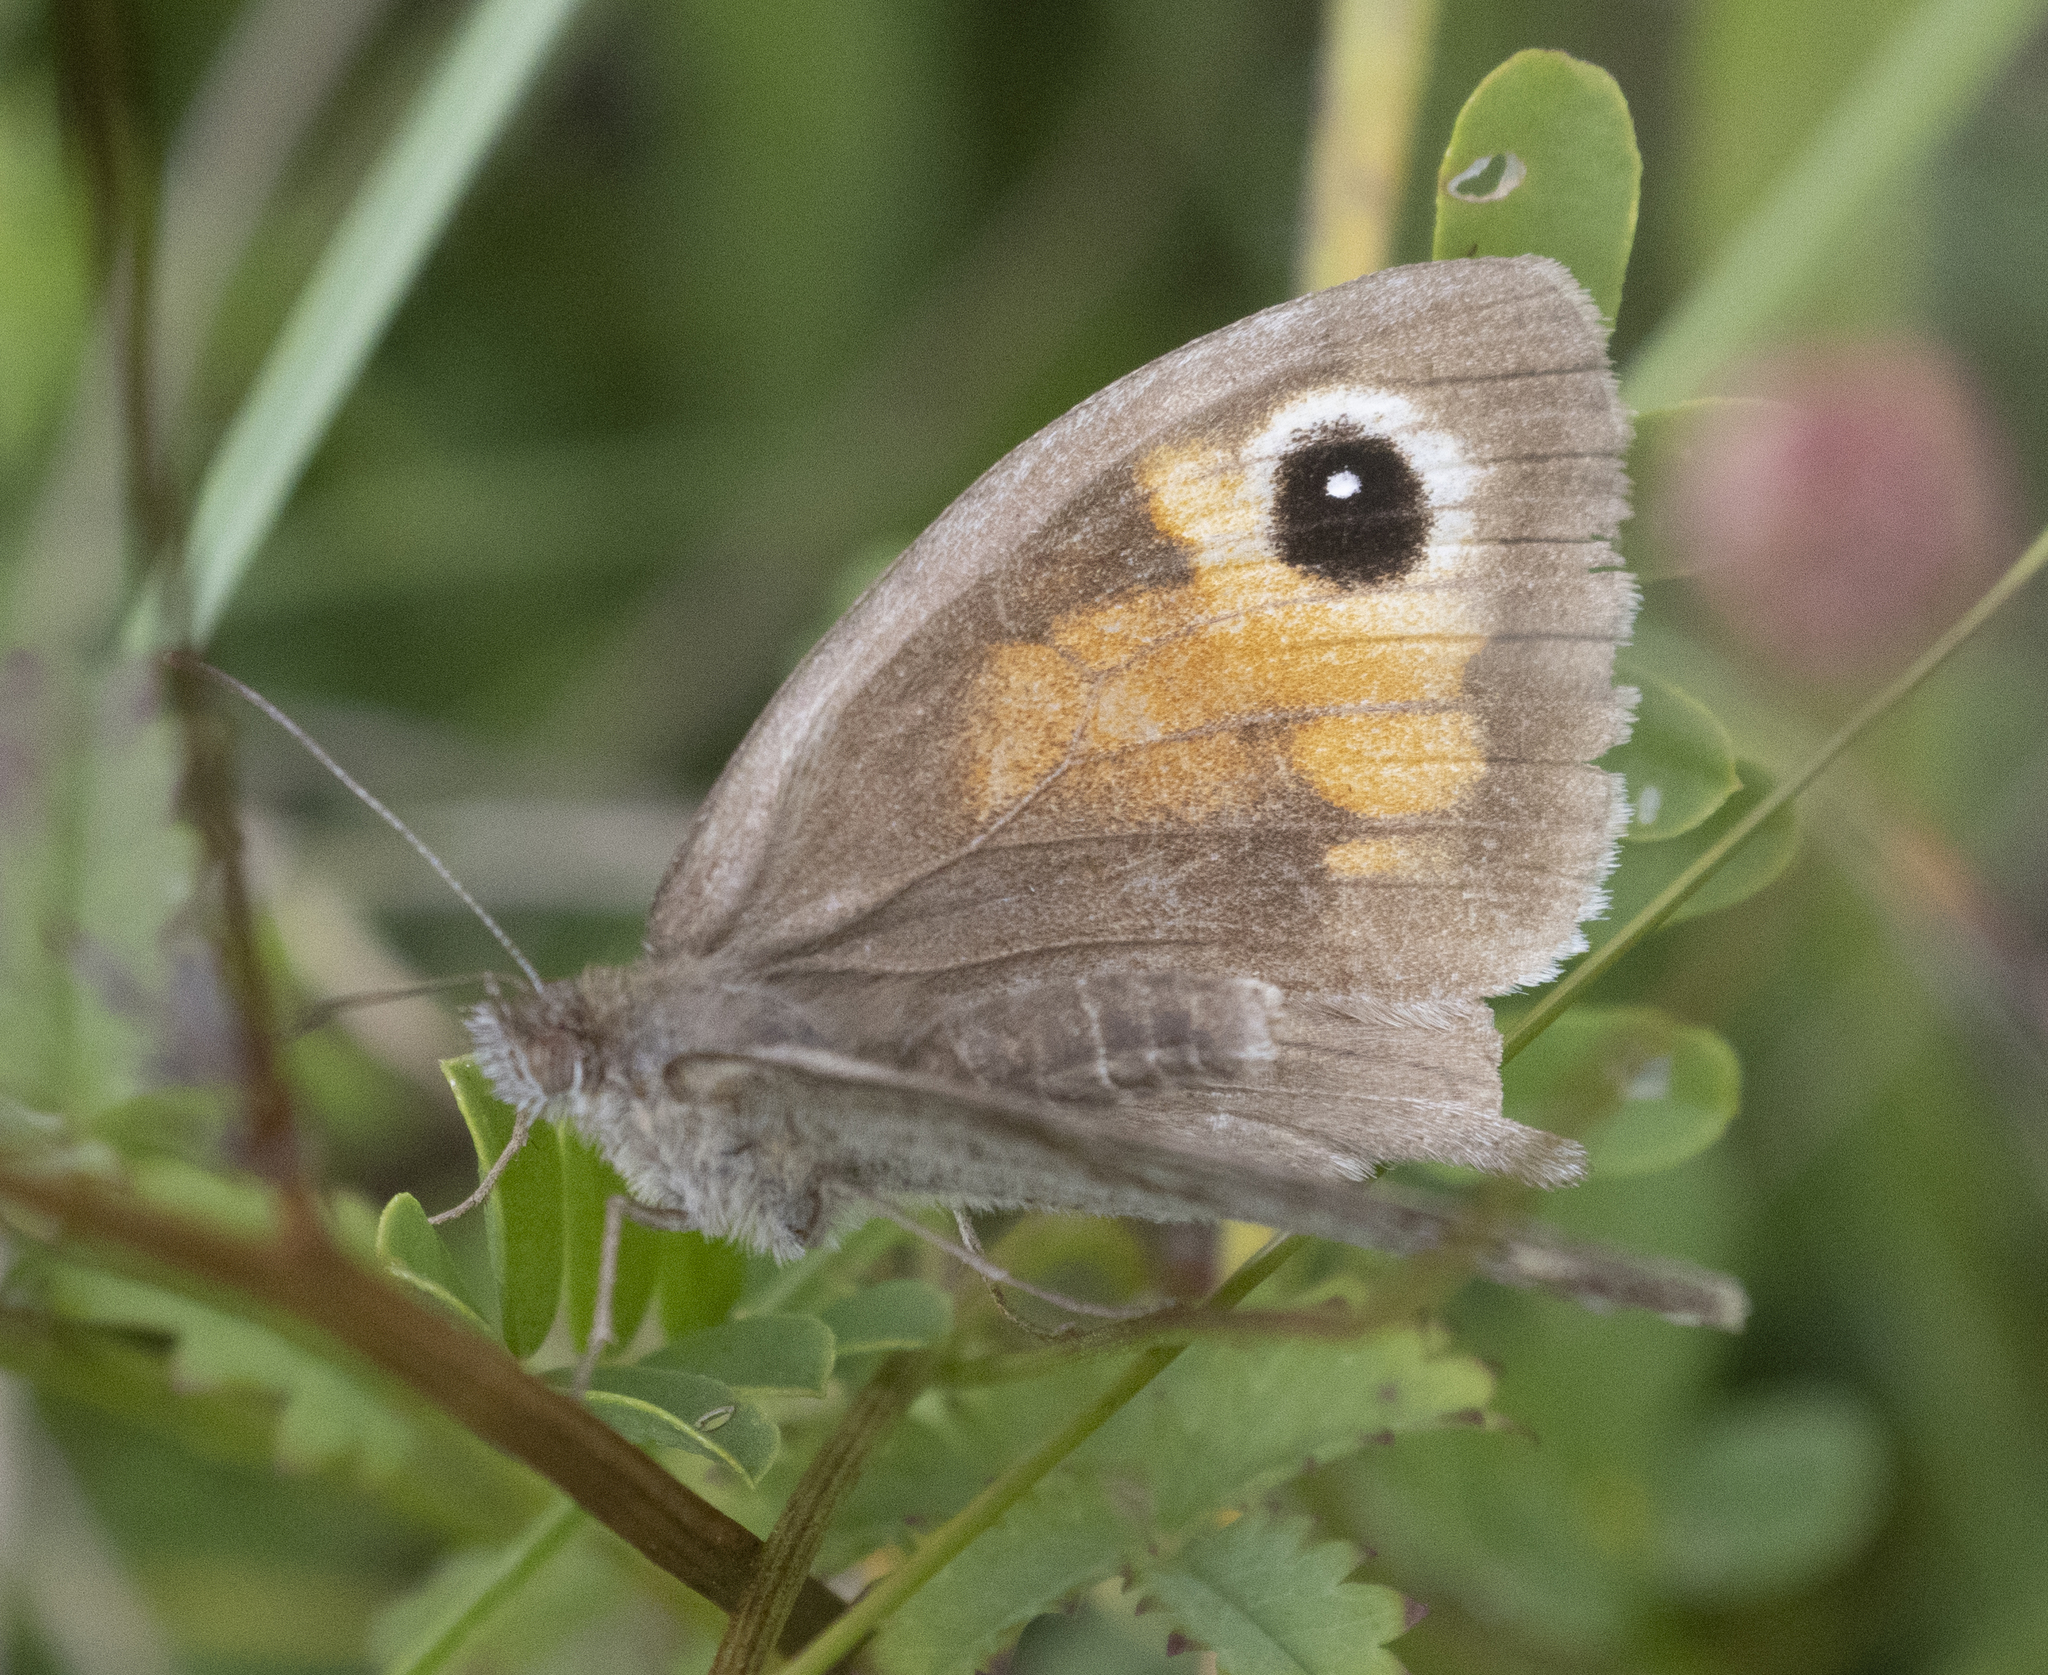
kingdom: Animalia
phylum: Arthropoda
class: Insecta
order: Lepidoptera
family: Nymphalidae
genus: Maniola
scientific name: Maniola jurtina
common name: Meadow brown
